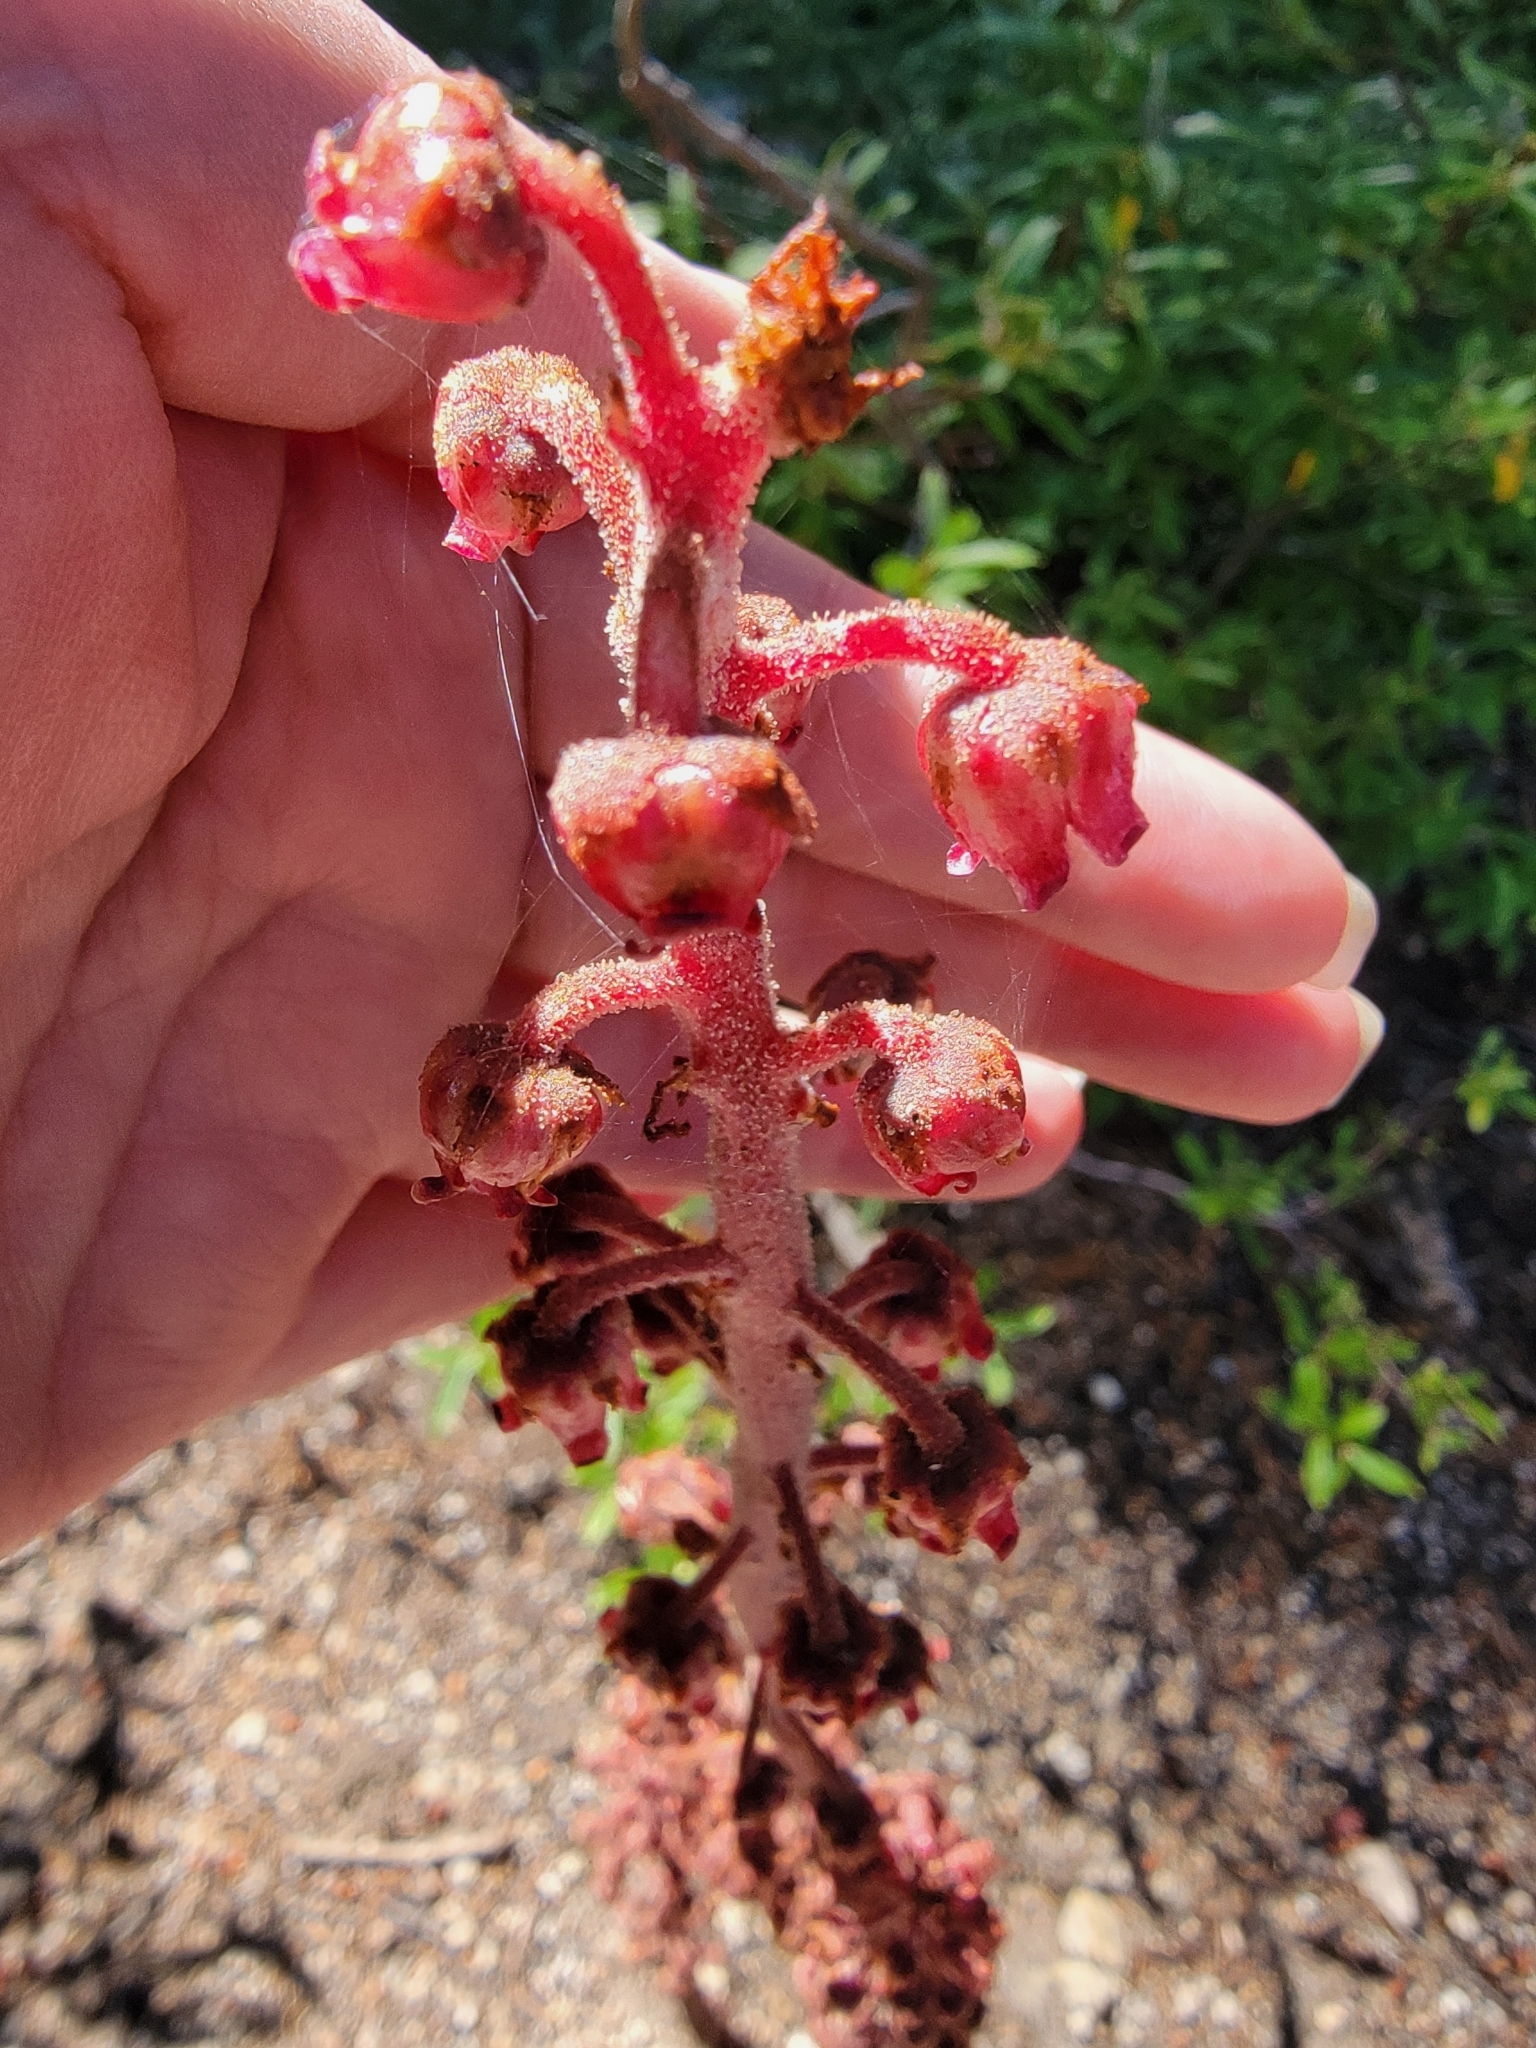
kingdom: Plantae
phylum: Tracheophyta
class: Magnoliopsida
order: Ericales
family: Ericaceae
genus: Pterospora
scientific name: Pterospora andromedea
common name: Giant bird's-nest
